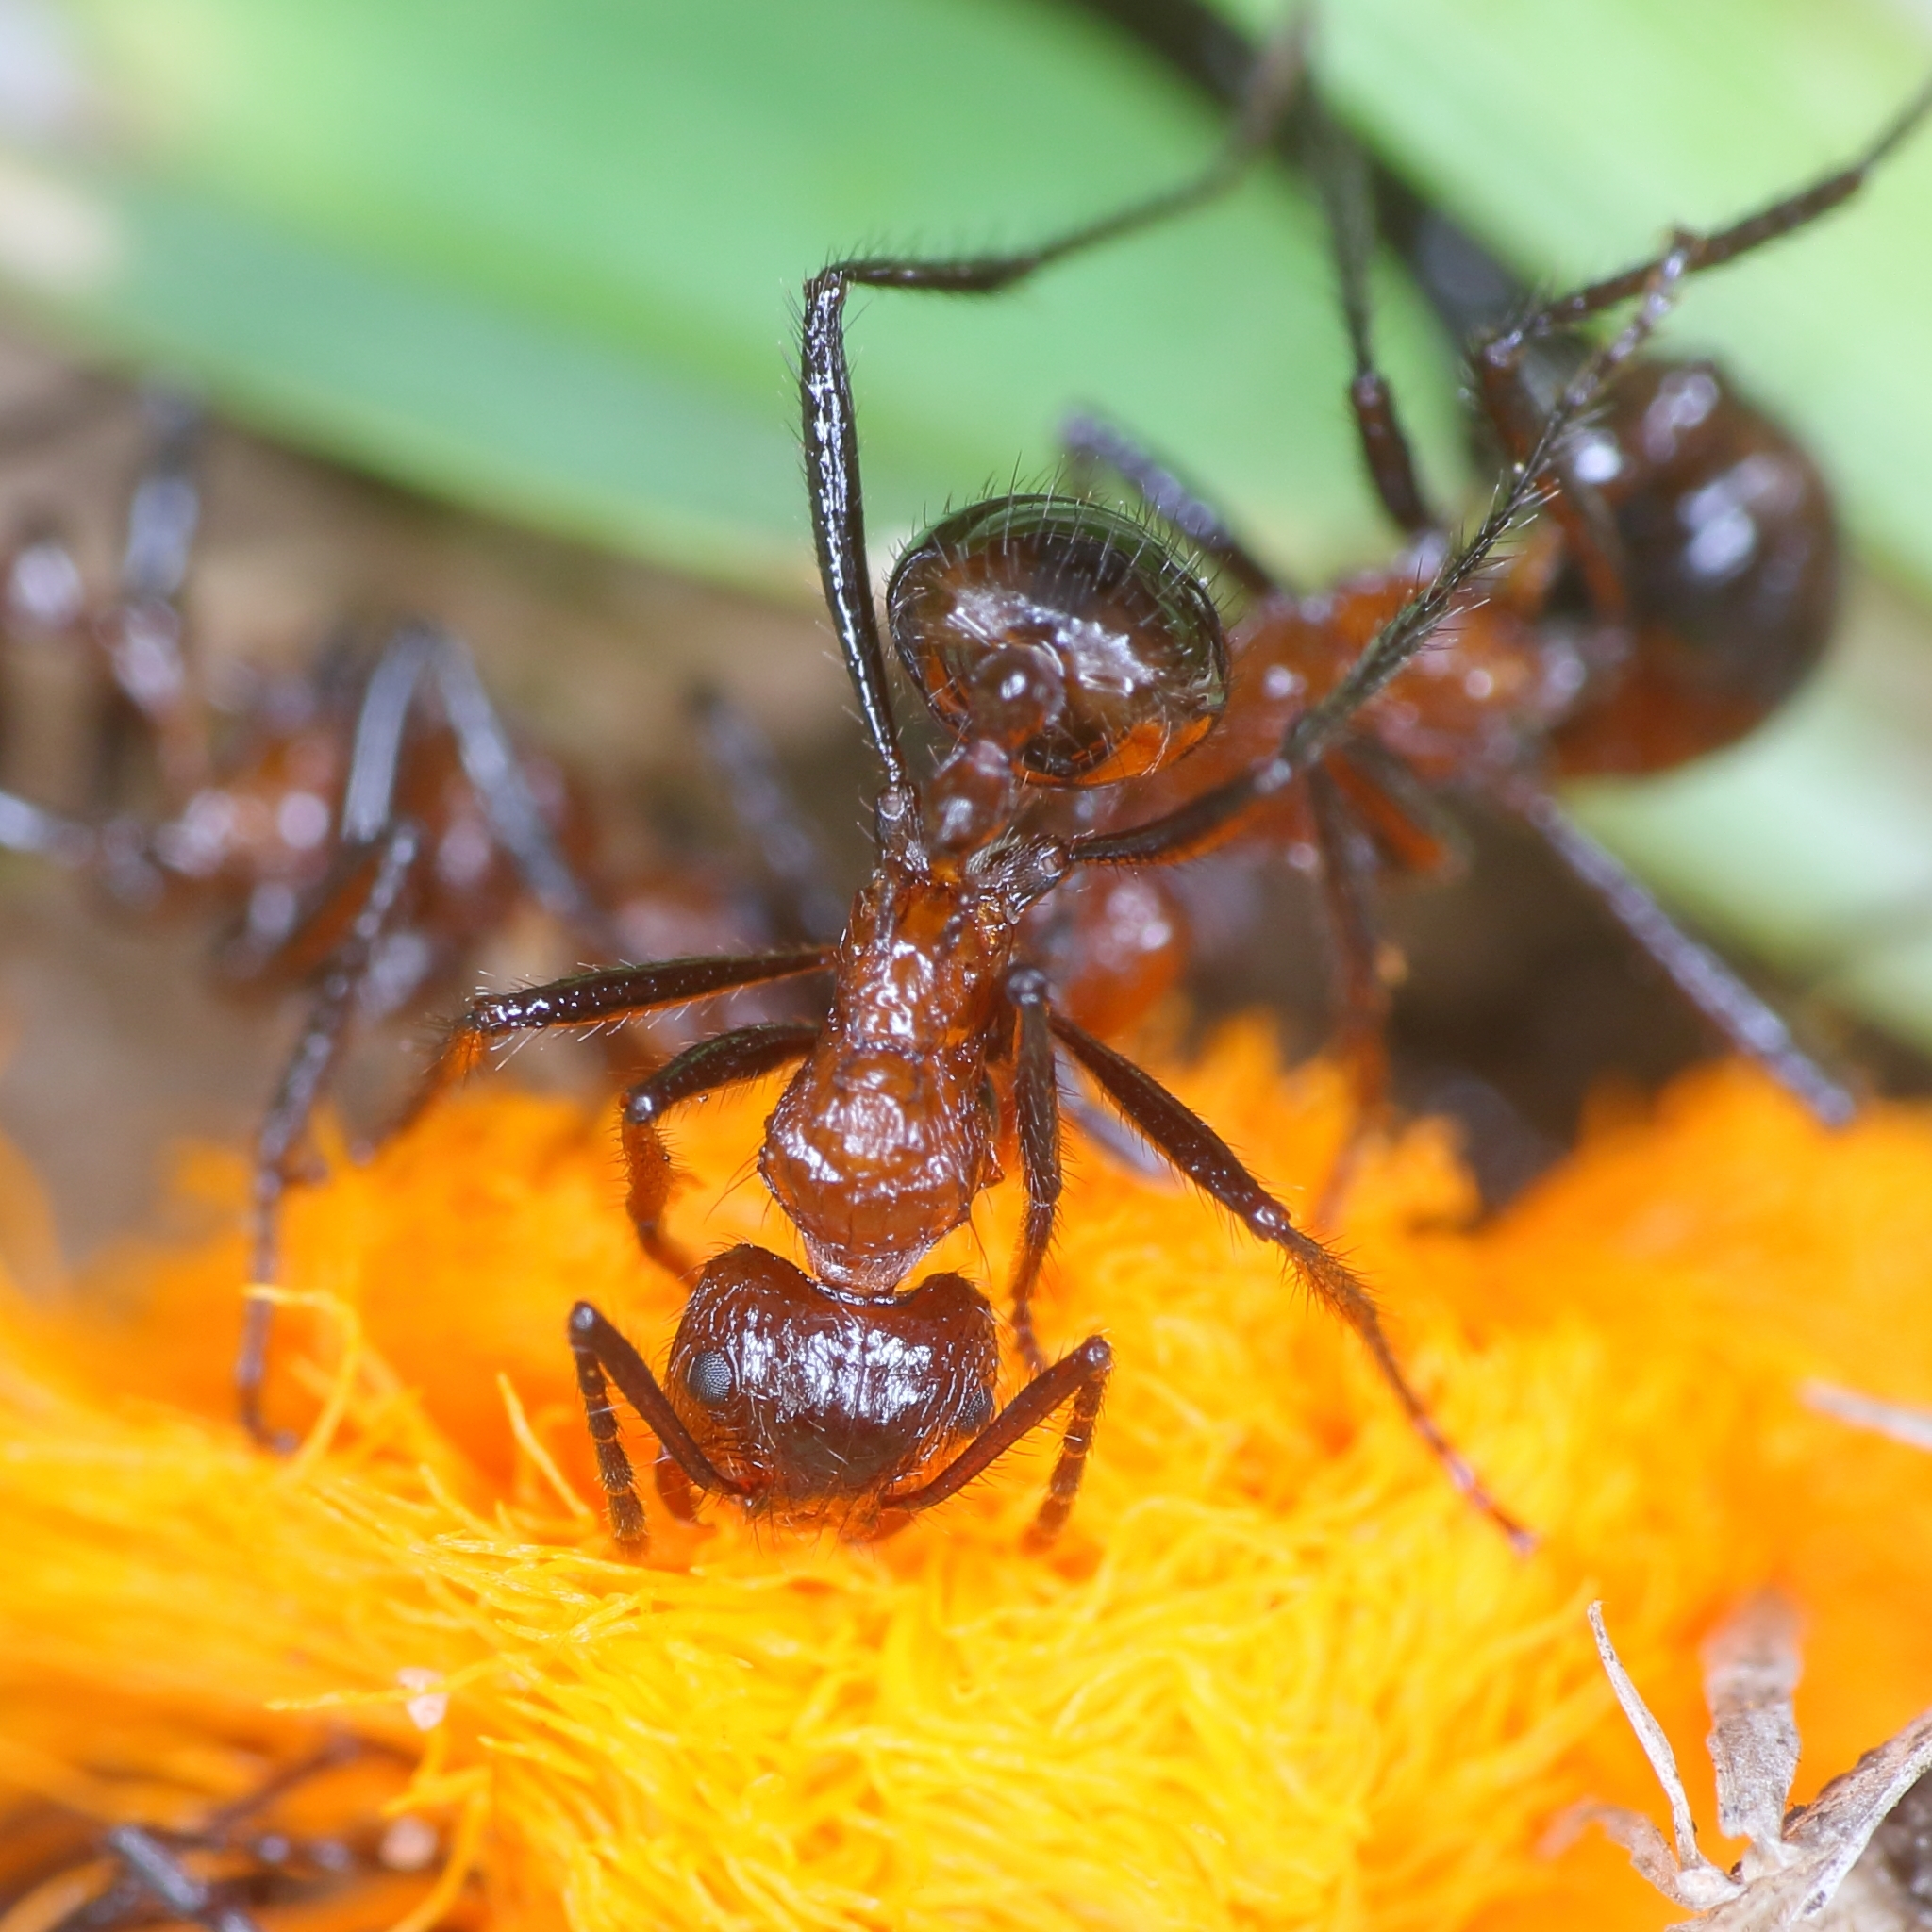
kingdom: Animalia
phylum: Arthropoda
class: Insecta
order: Hymenoptera
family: Formicidae
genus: Myrmicaria
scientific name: Myrmicaria natalensis
